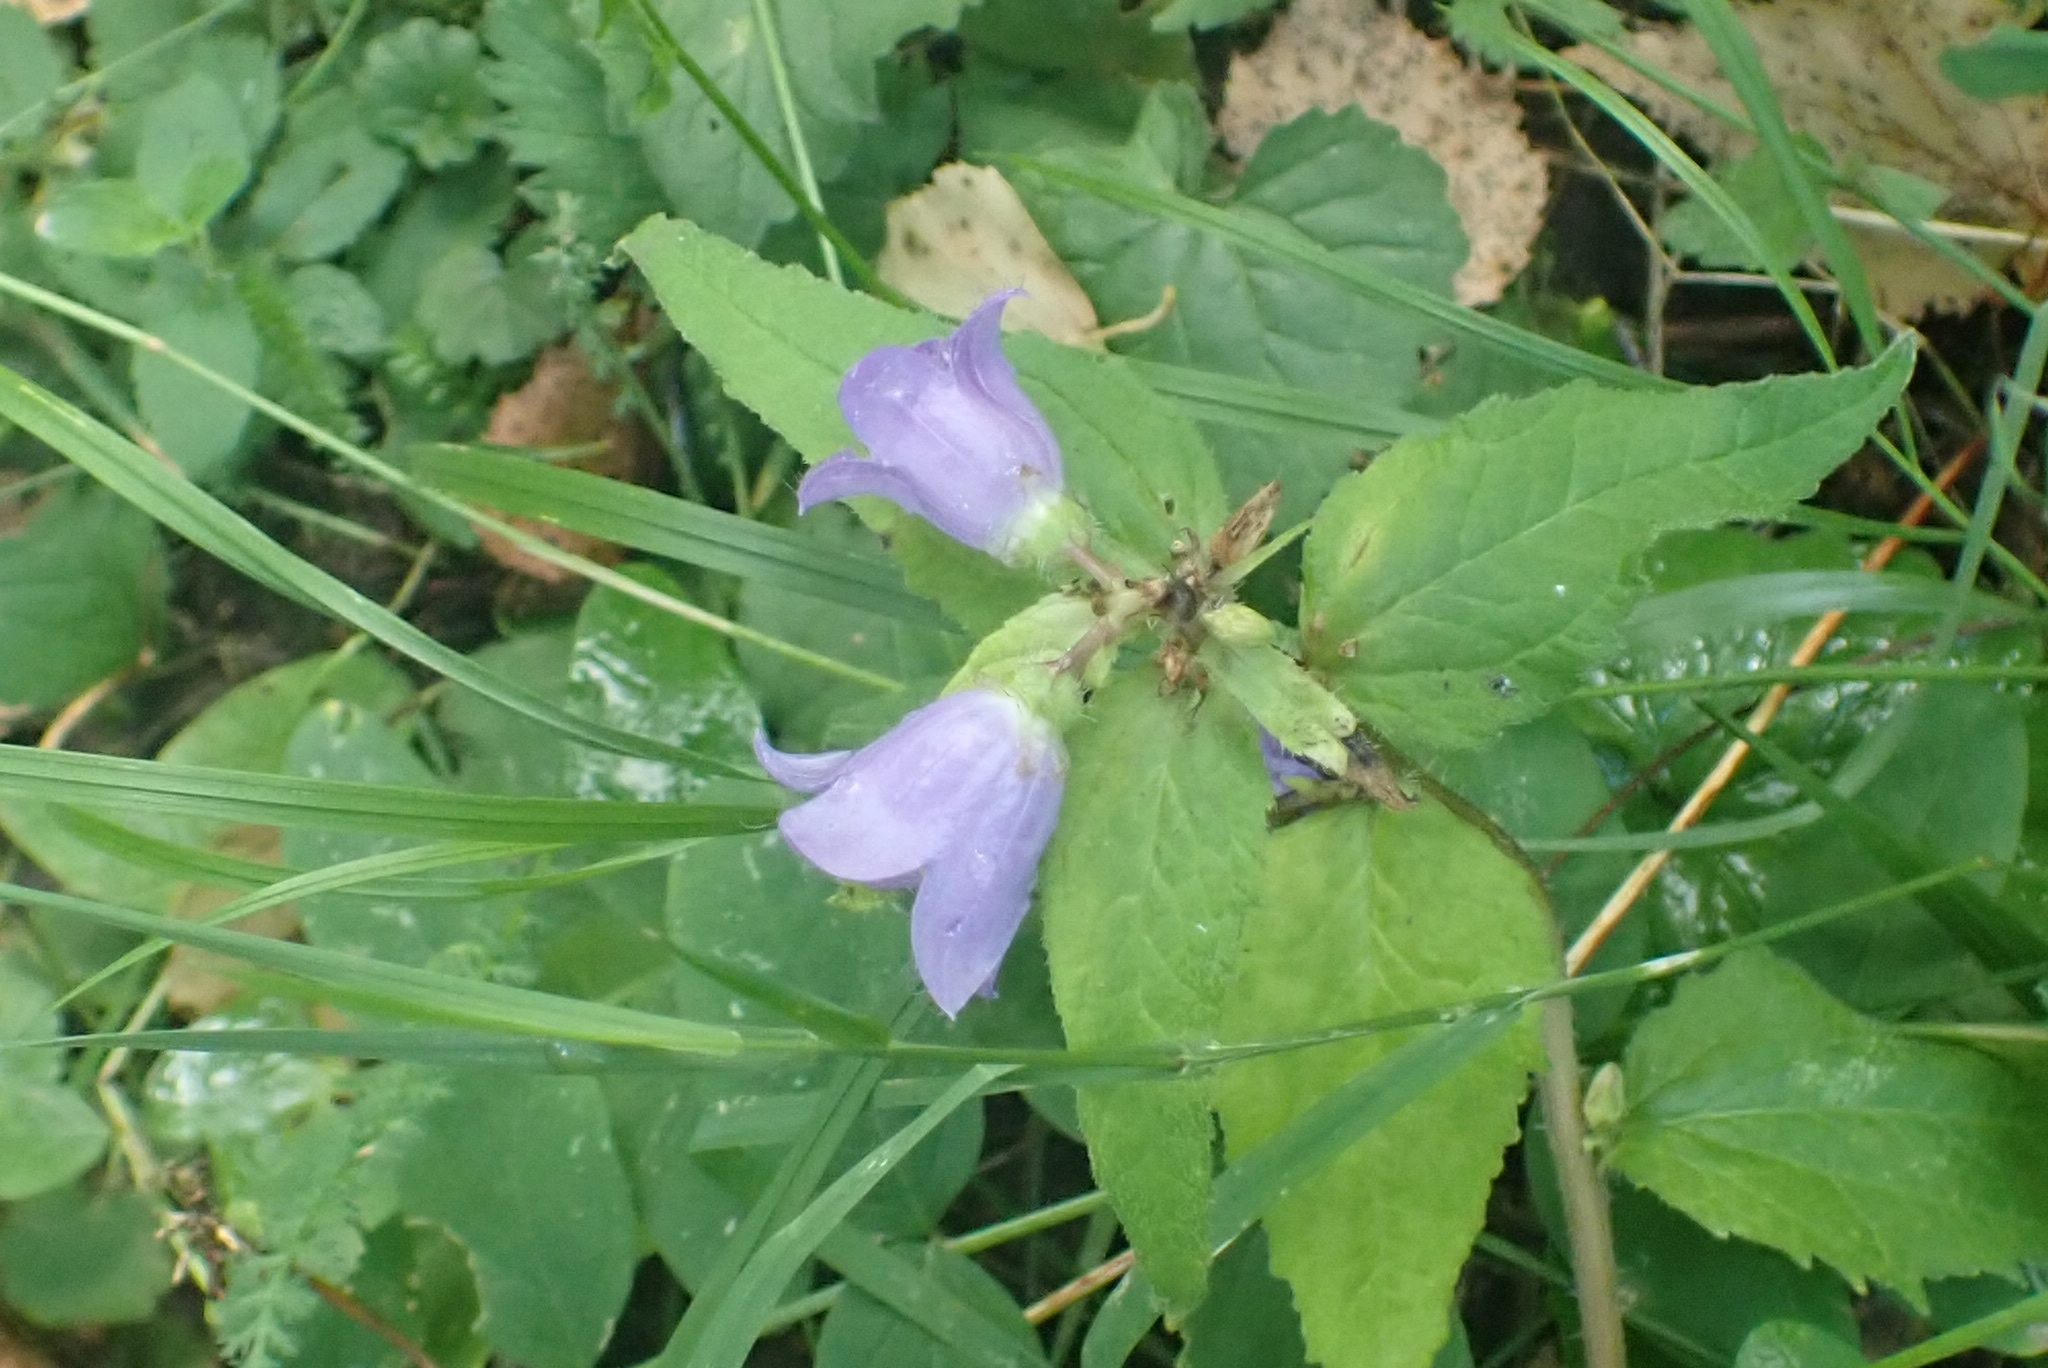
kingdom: Plantae
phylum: Tracheophyta
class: Magnoliopsida
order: Asterales
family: Campanulaceae
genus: Campanula
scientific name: Campanula trachelium
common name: Nettle-leaved bellflower
